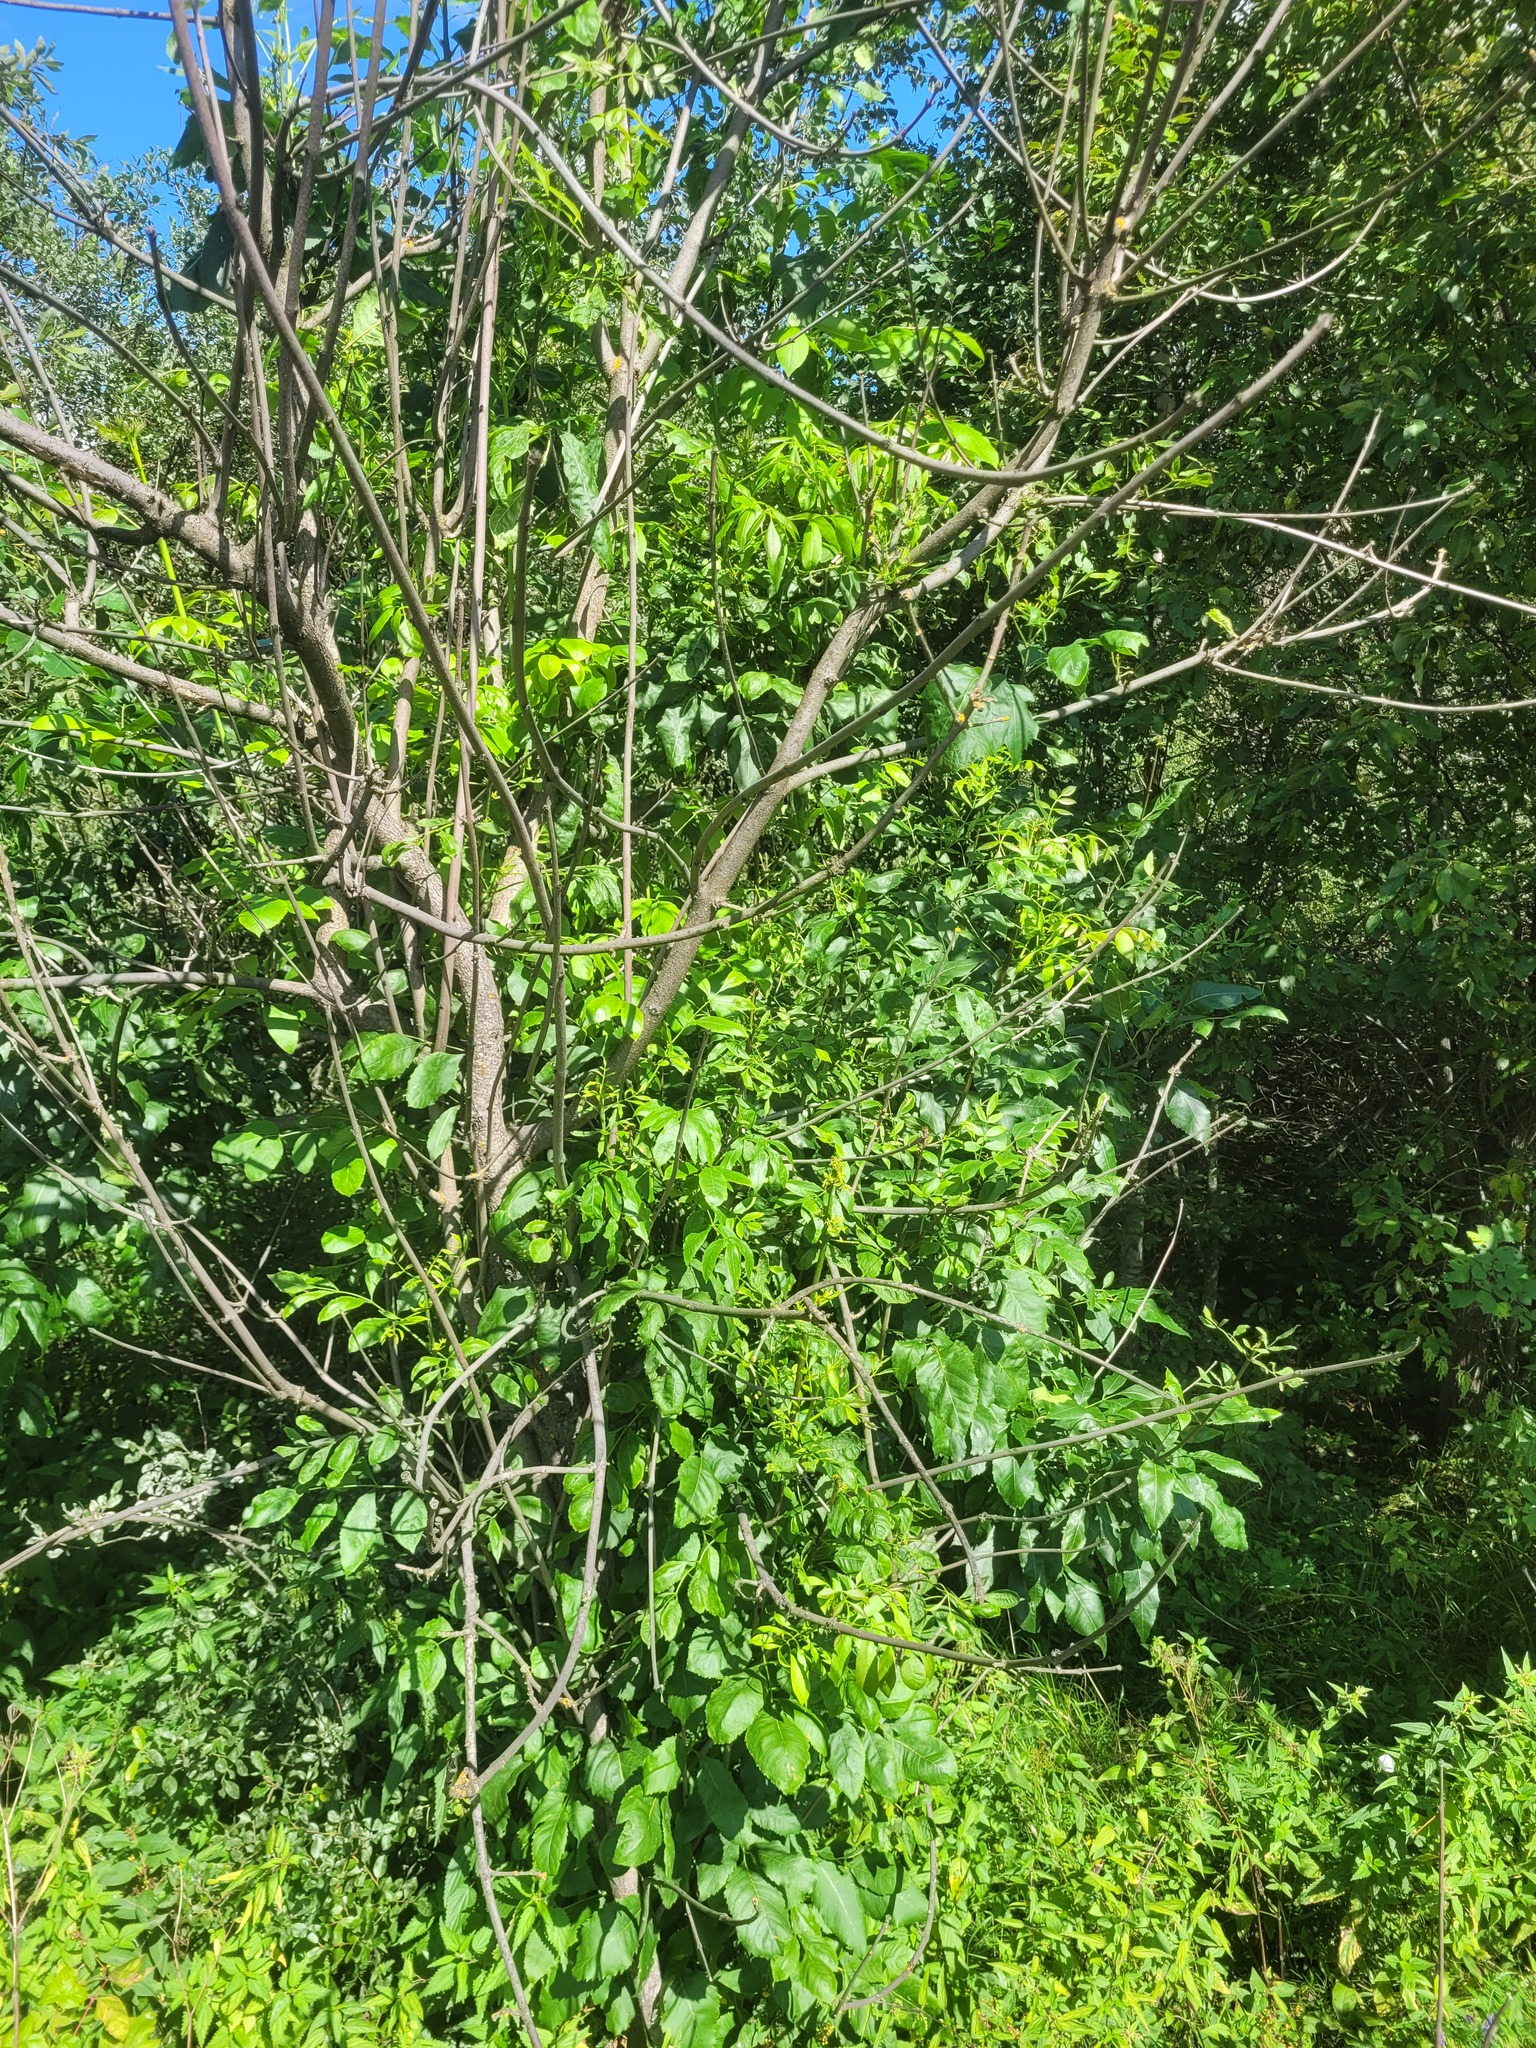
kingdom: Plantae
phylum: Tracheophyta
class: Magnoliopsida
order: Lamiales
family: Oleaceae
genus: Fraxinus
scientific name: Fraxinus pennsylvanica
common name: Green ash
